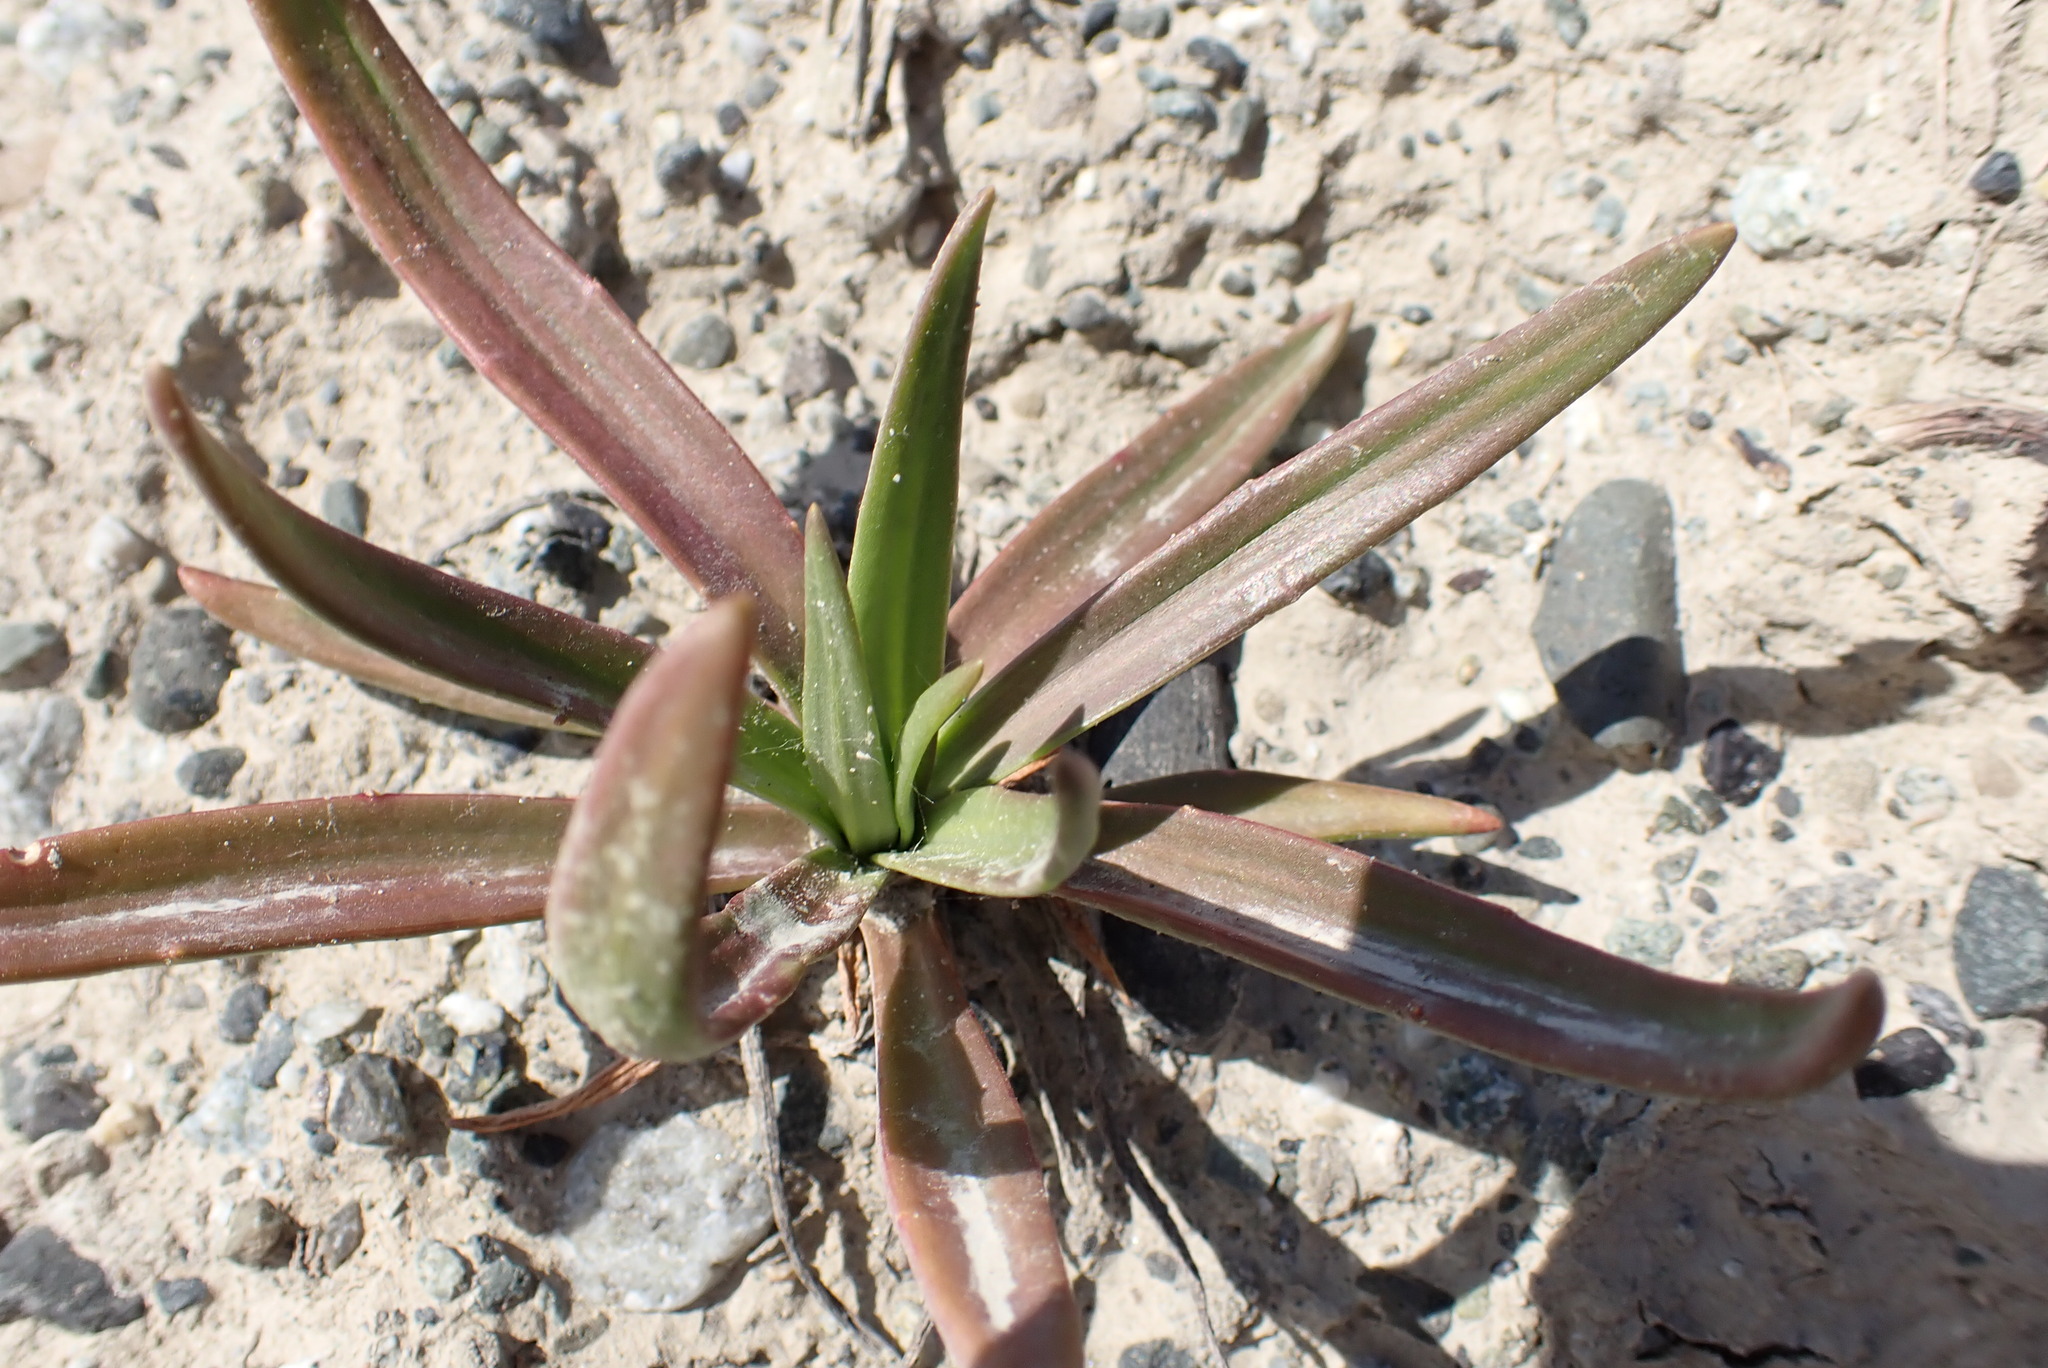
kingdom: Plantae
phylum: Tracheophyta
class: Magnoliopsida
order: Lamiales
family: Plantaginaceae
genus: Plantago
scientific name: Plantago maritima
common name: Sea plantain
